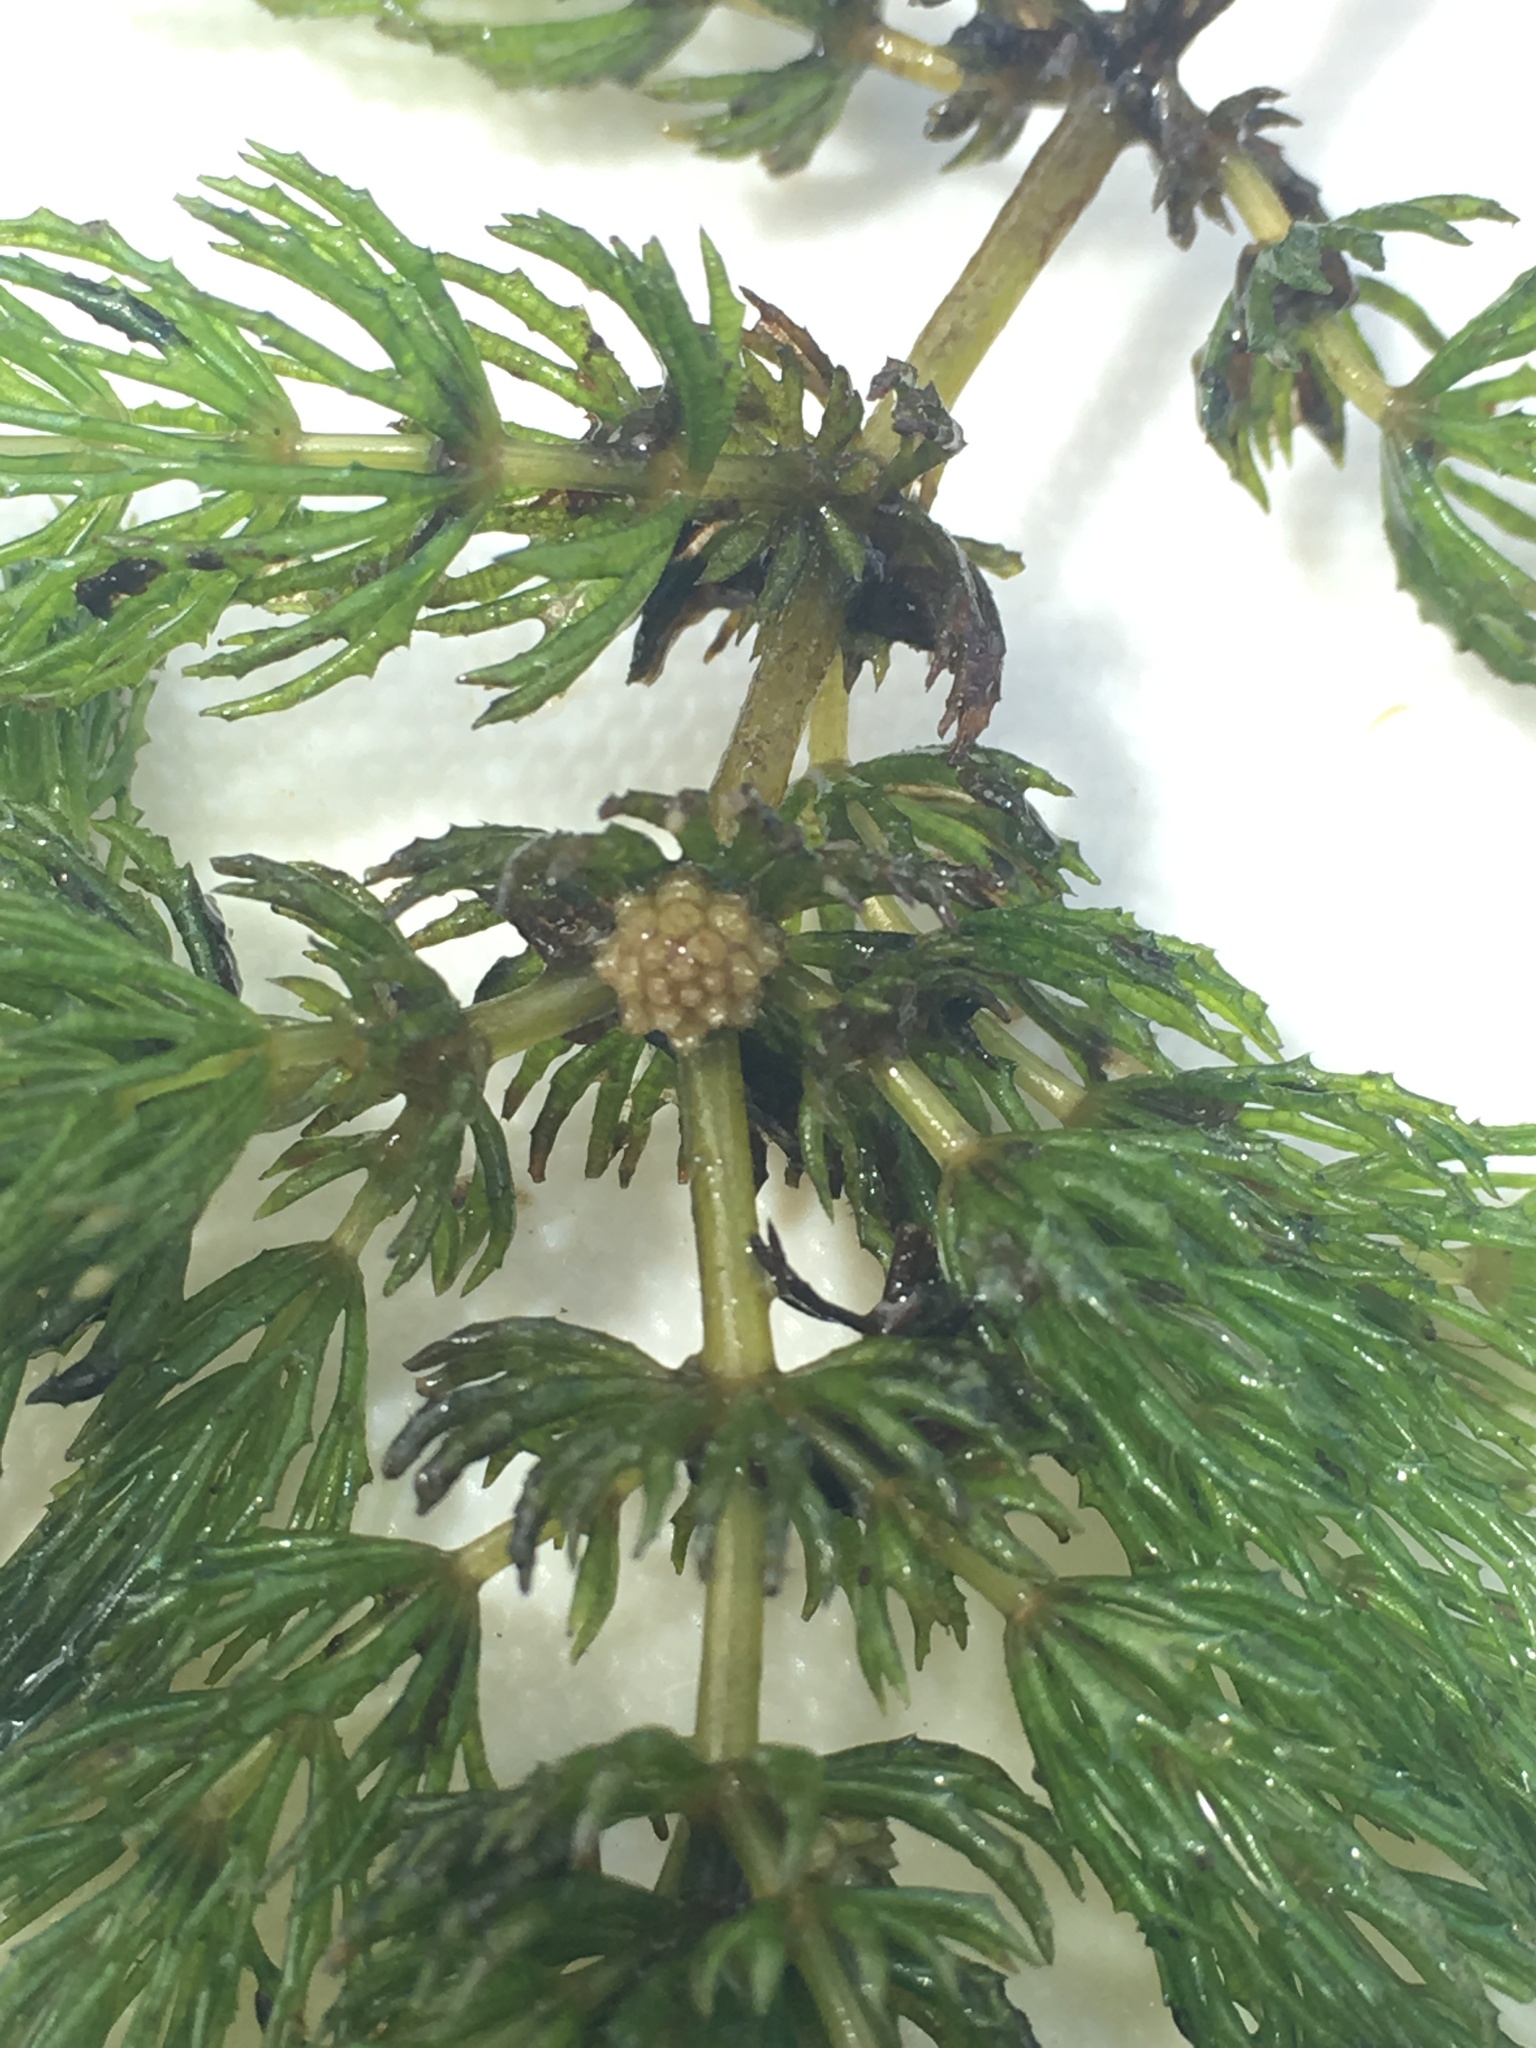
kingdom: Plantae
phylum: Tracheophyta
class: Magnoliopsida
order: Ceratophyllales
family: Ceratophyllaceae
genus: Ceratophyllum
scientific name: Ceratophyllum demersum
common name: Rigid hornwort
